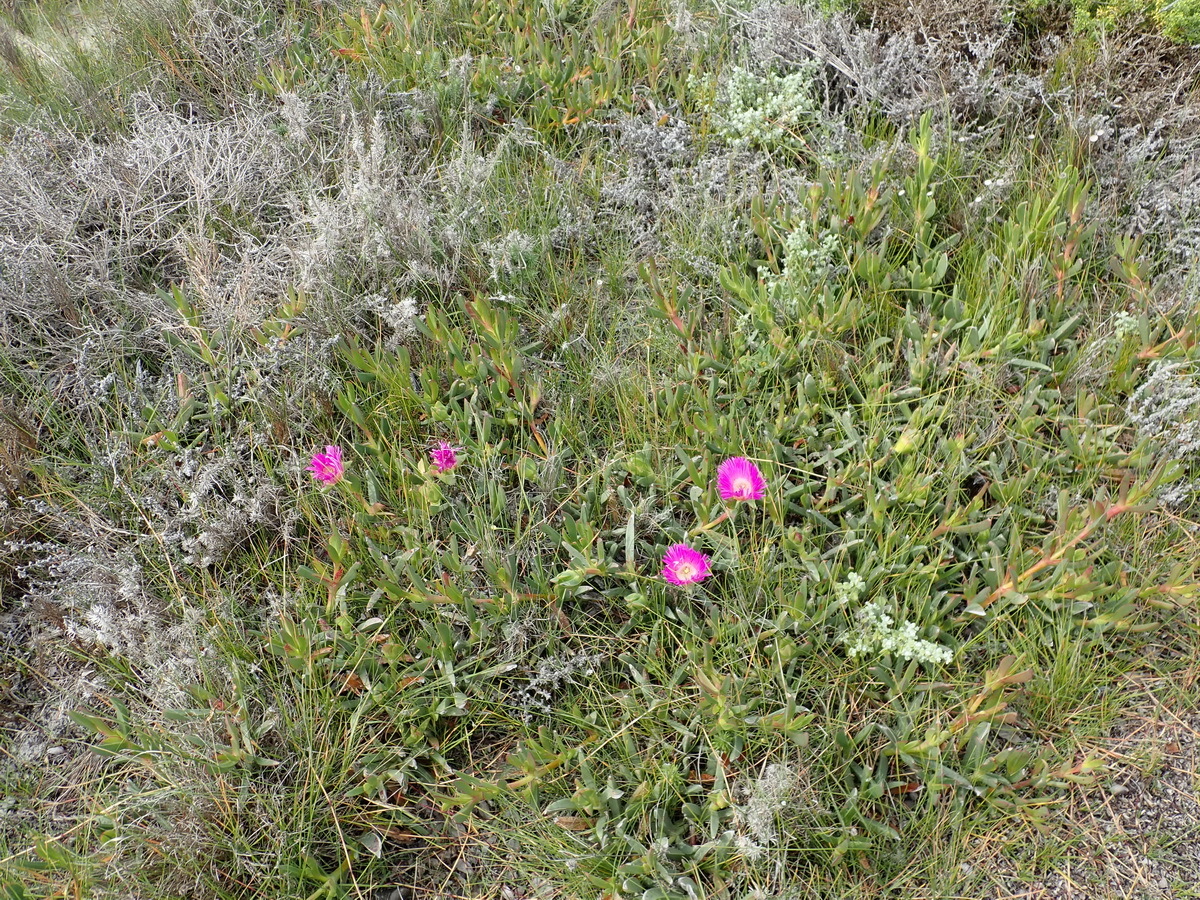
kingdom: Plantae
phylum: Tracheophyta
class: Magnoliopsida
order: Caryophyllales
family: Aizoaceae
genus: Carpobrotus
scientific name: Carpobrotus acinaciformis
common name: Sally-my-handsome
